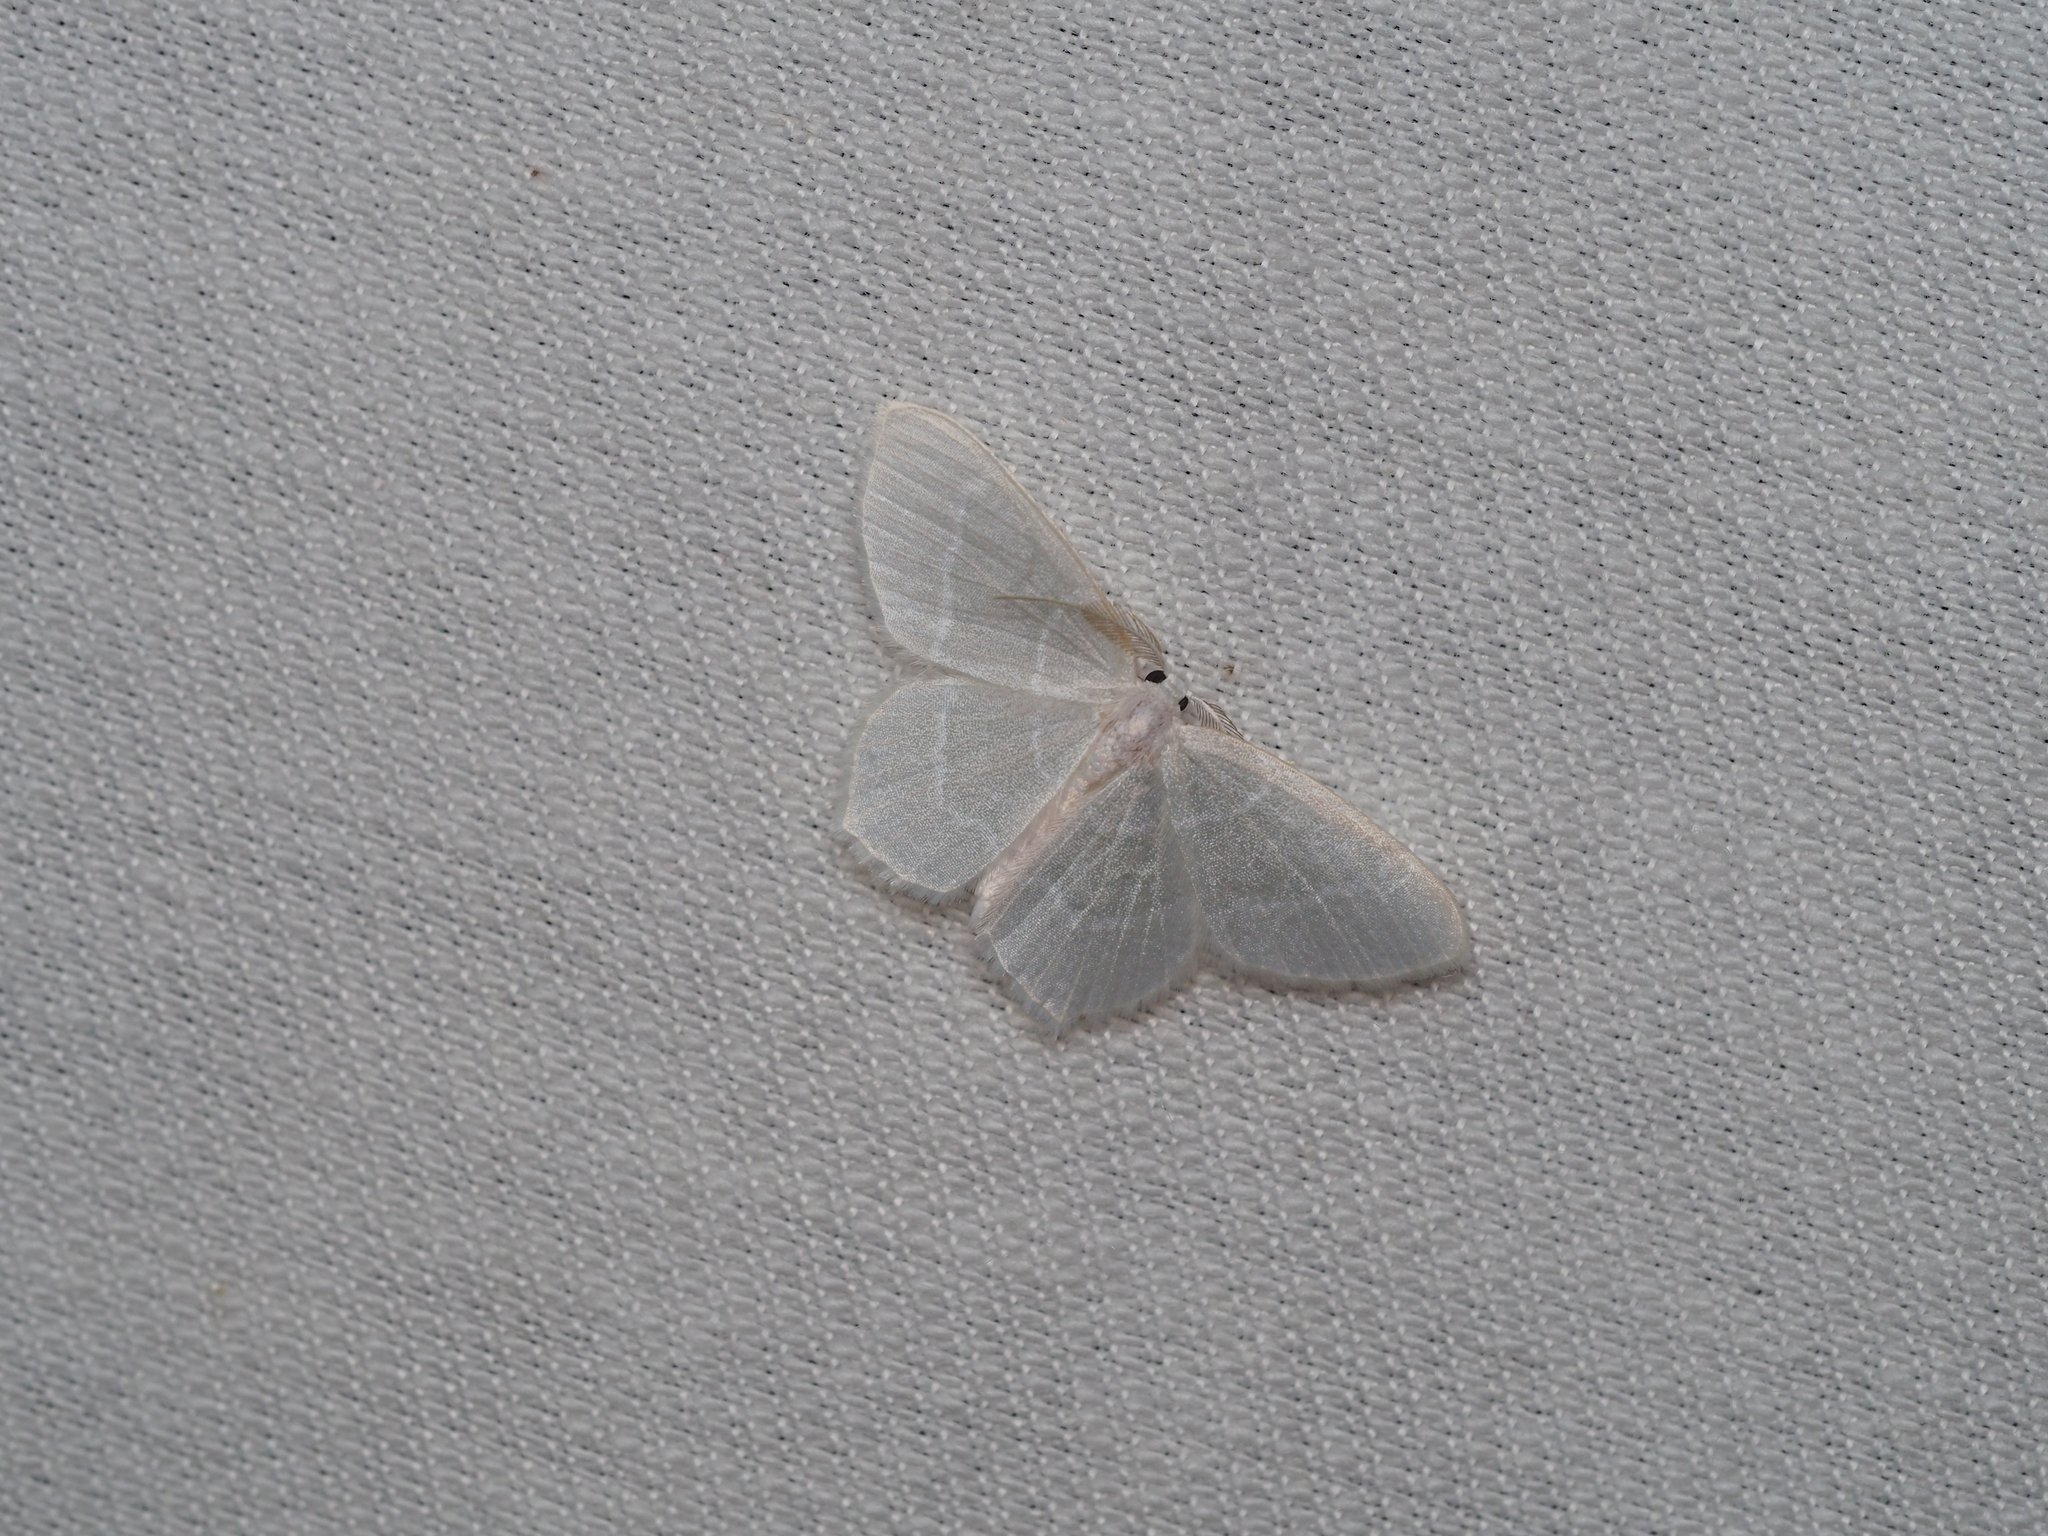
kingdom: Animalia
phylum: Arthropoda
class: Insecta
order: Lepidoptera
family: Geometridae
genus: Jodis
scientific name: Jodis lactearia
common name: Little emerald
